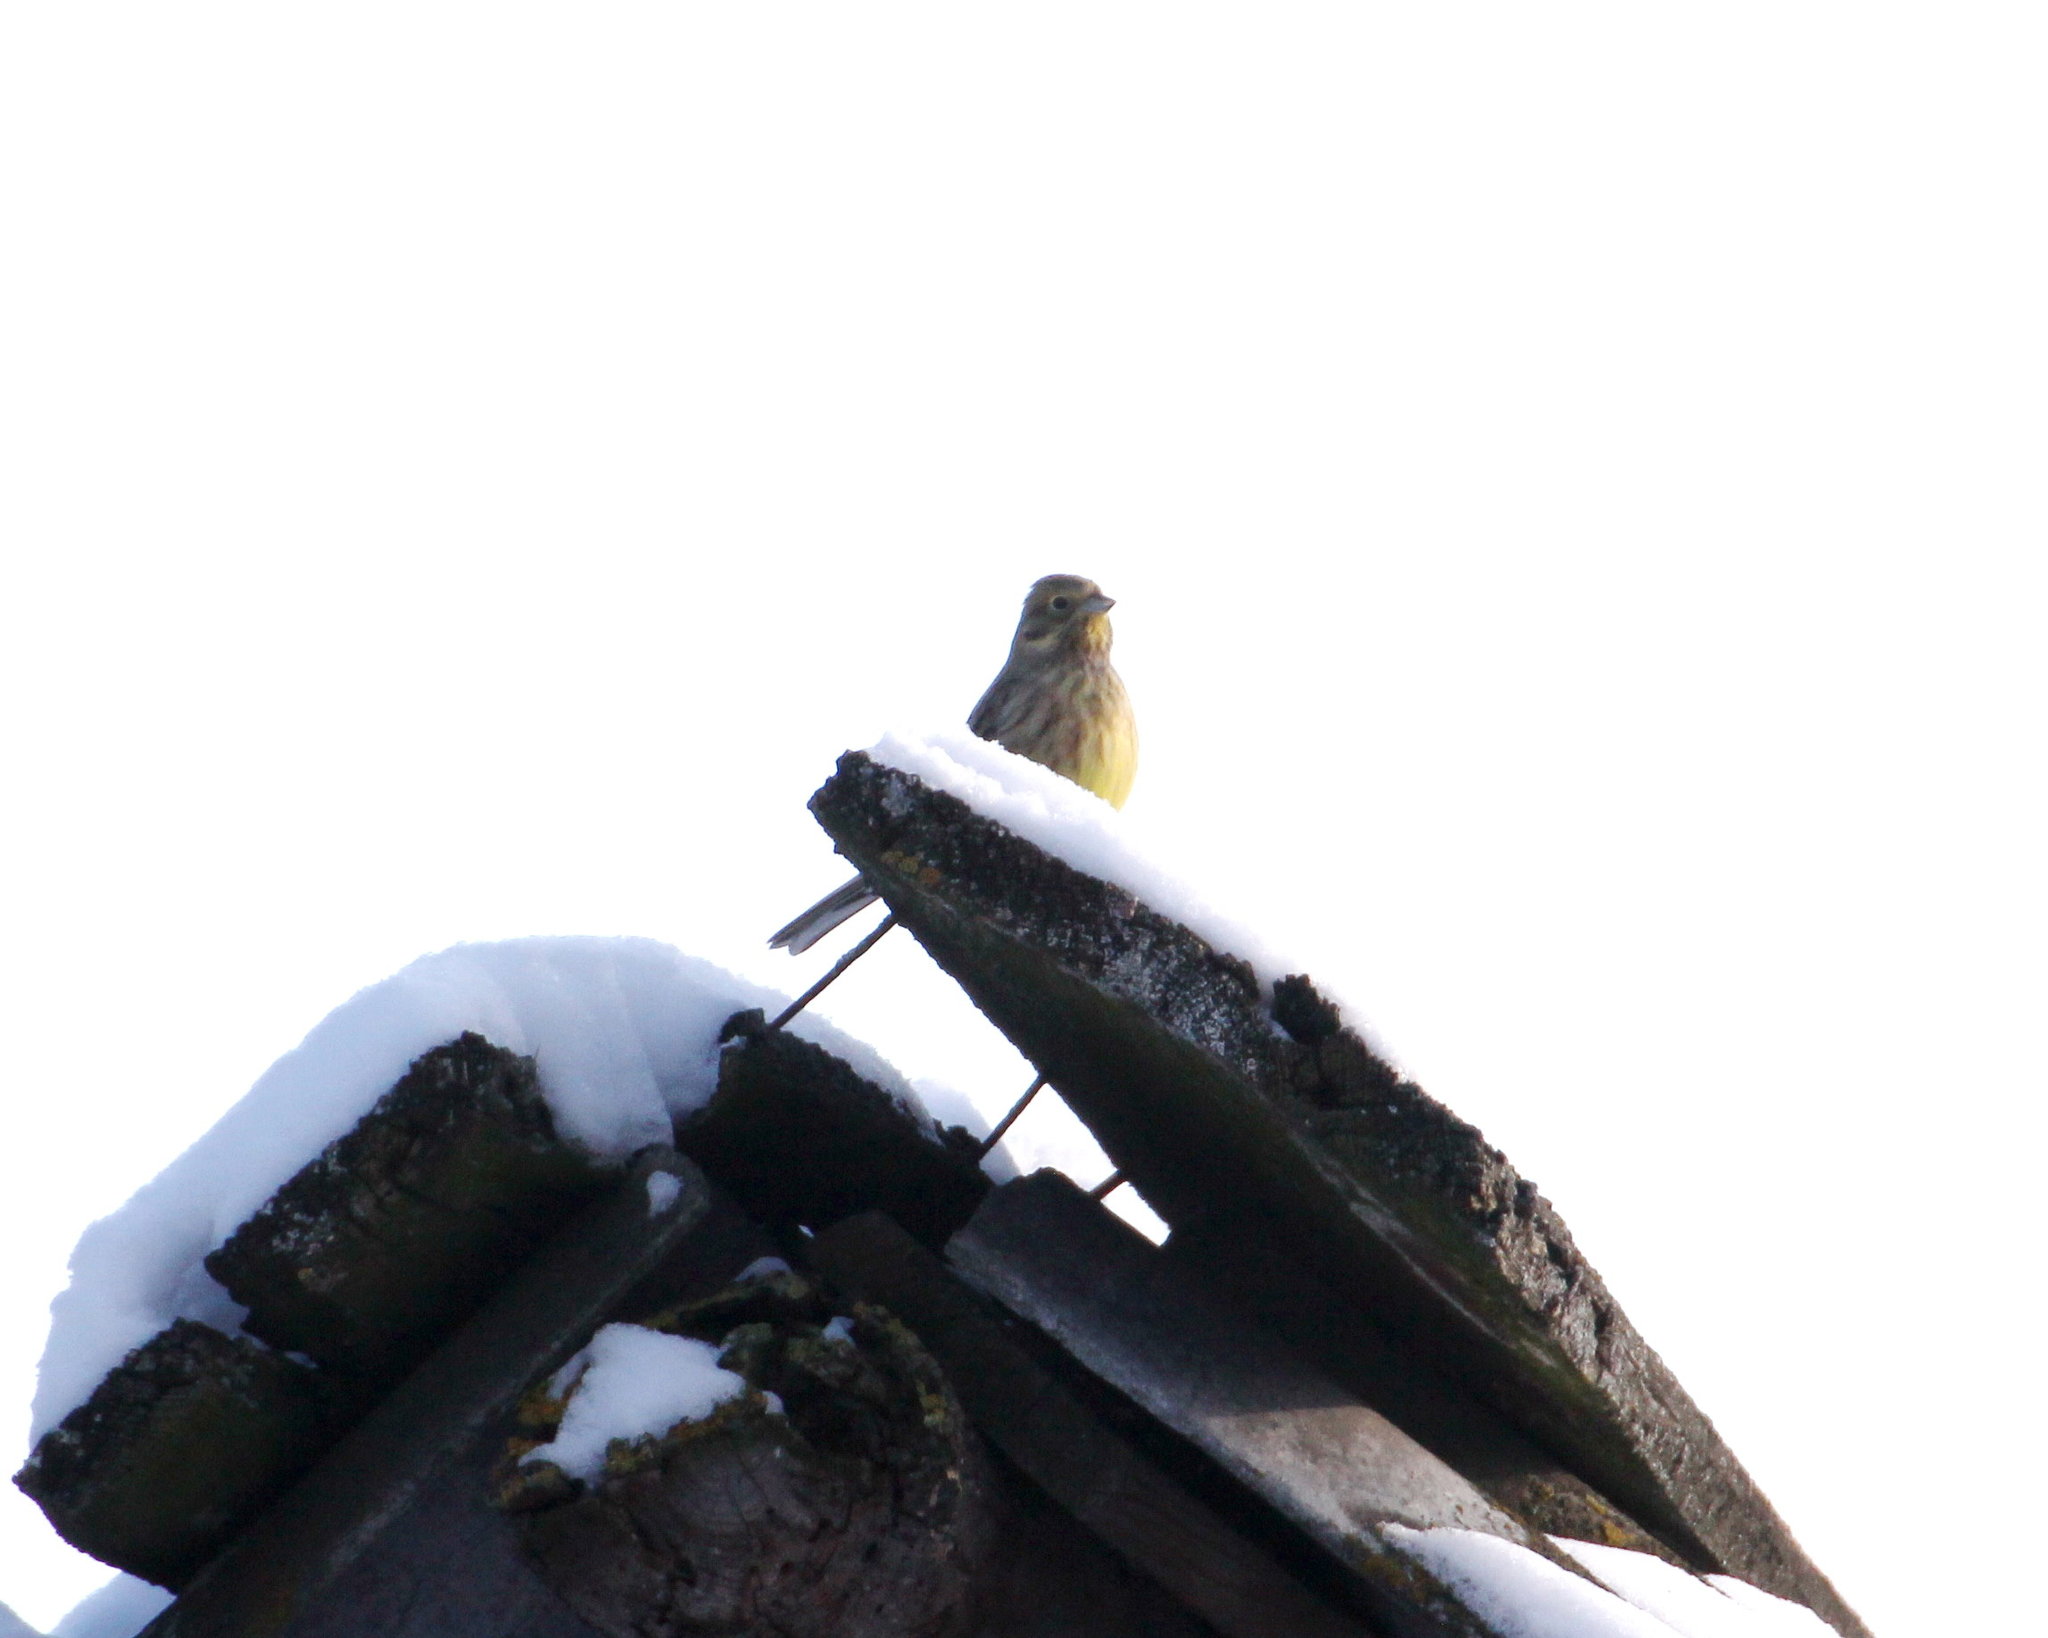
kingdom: Animalia
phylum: Chordata
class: Aves
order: Passeriformes
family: Emberizidae
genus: Emberiza
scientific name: Emberiza citrinella
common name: Yellowhammer
